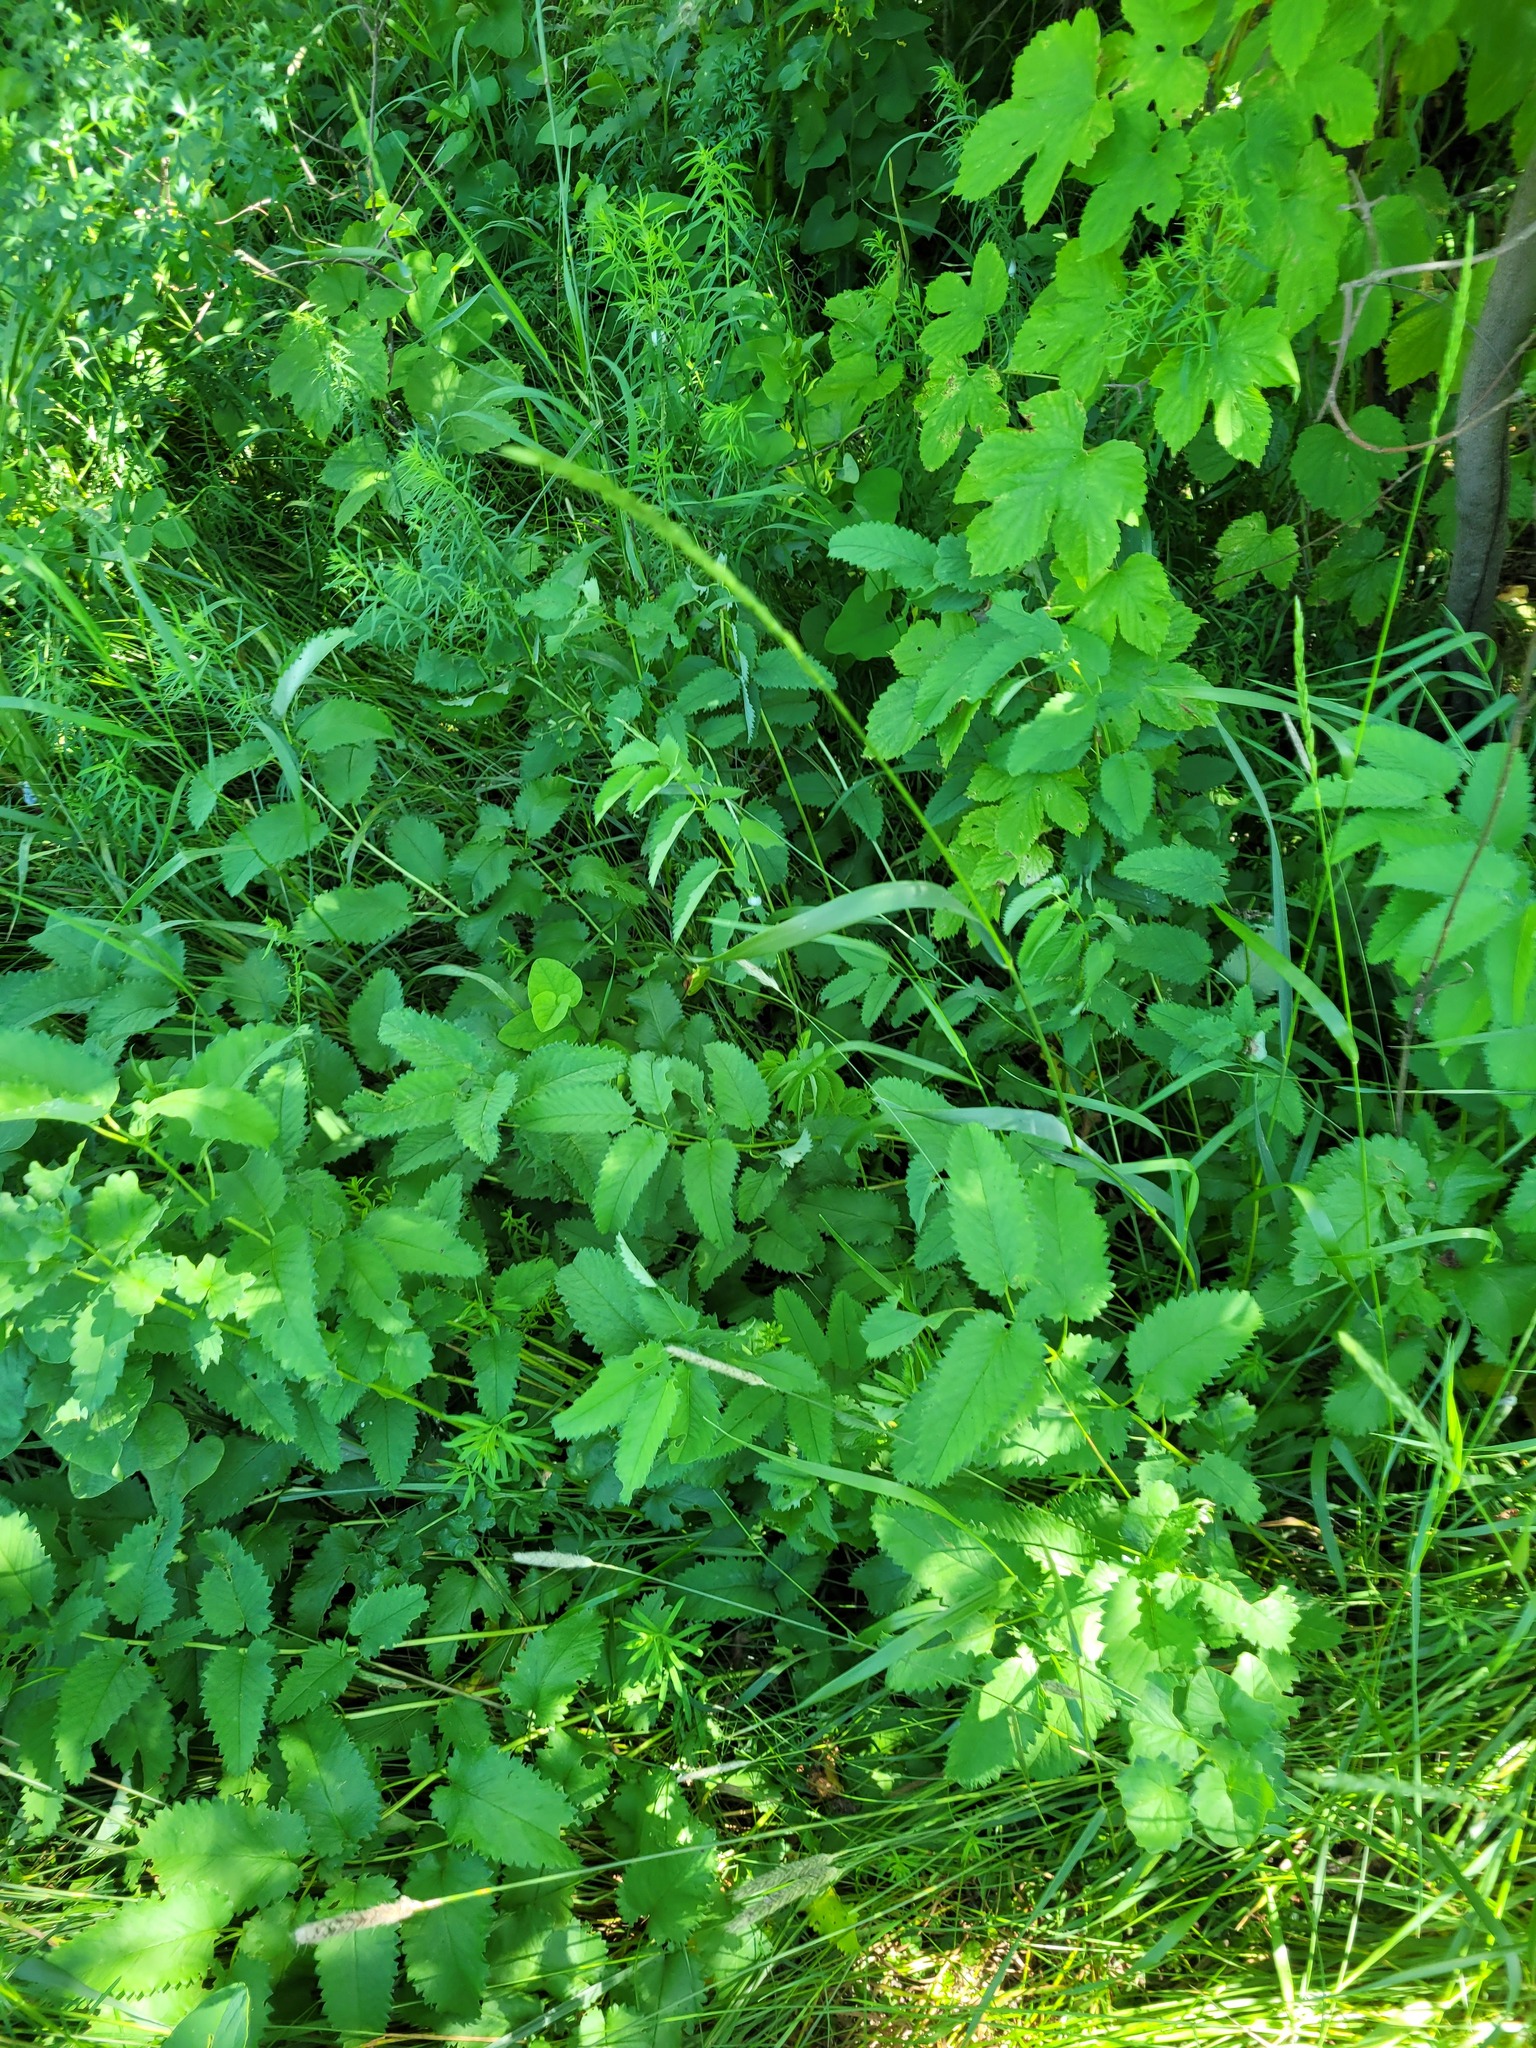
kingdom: Plantae
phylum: Tracheophyta
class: Magnoliopsida
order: Rosales
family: Rosaceae
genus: Sanguisorba
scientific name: Sanguisorba officinalis
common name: Great burnet
